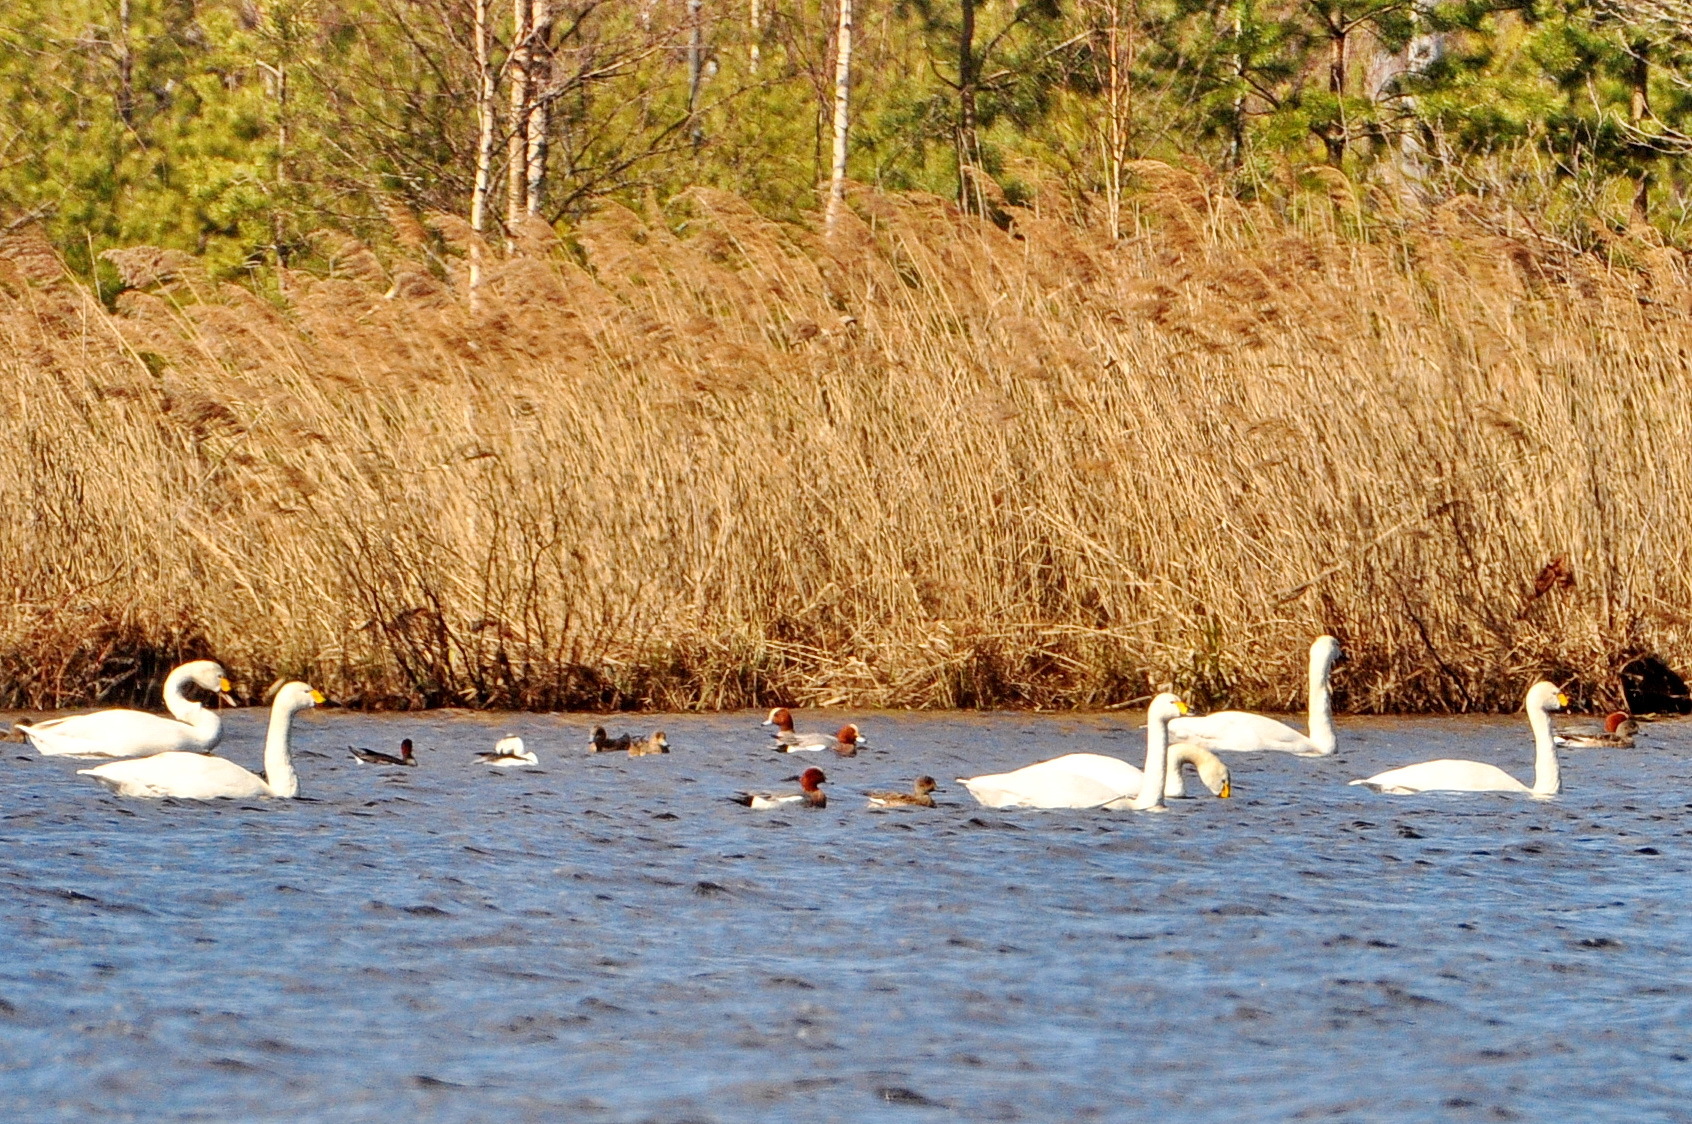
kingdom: Animalia
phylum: Chordata
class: Aves
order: Anseriformes
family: Anatidae
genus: Cygnus
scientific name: Cygnus columbianus
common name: Tundra swan
